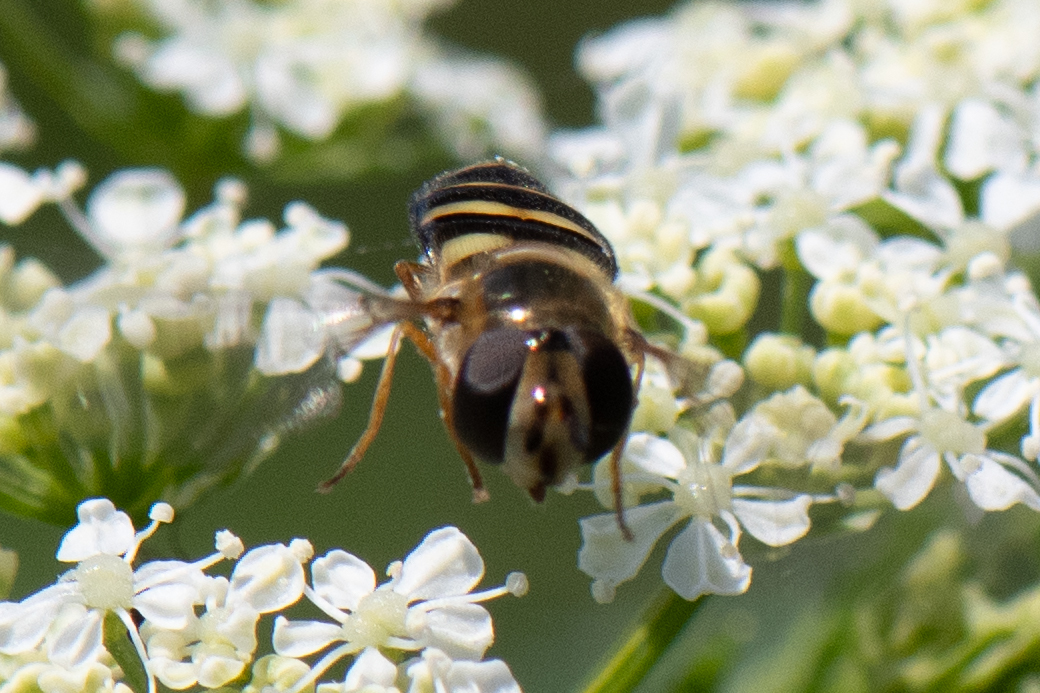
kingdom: Animalia
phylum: Arthropoda
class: Insecta
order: Diptera
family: Syrphidae
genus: Eupeodes
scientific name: Eupeodes fumipennis
